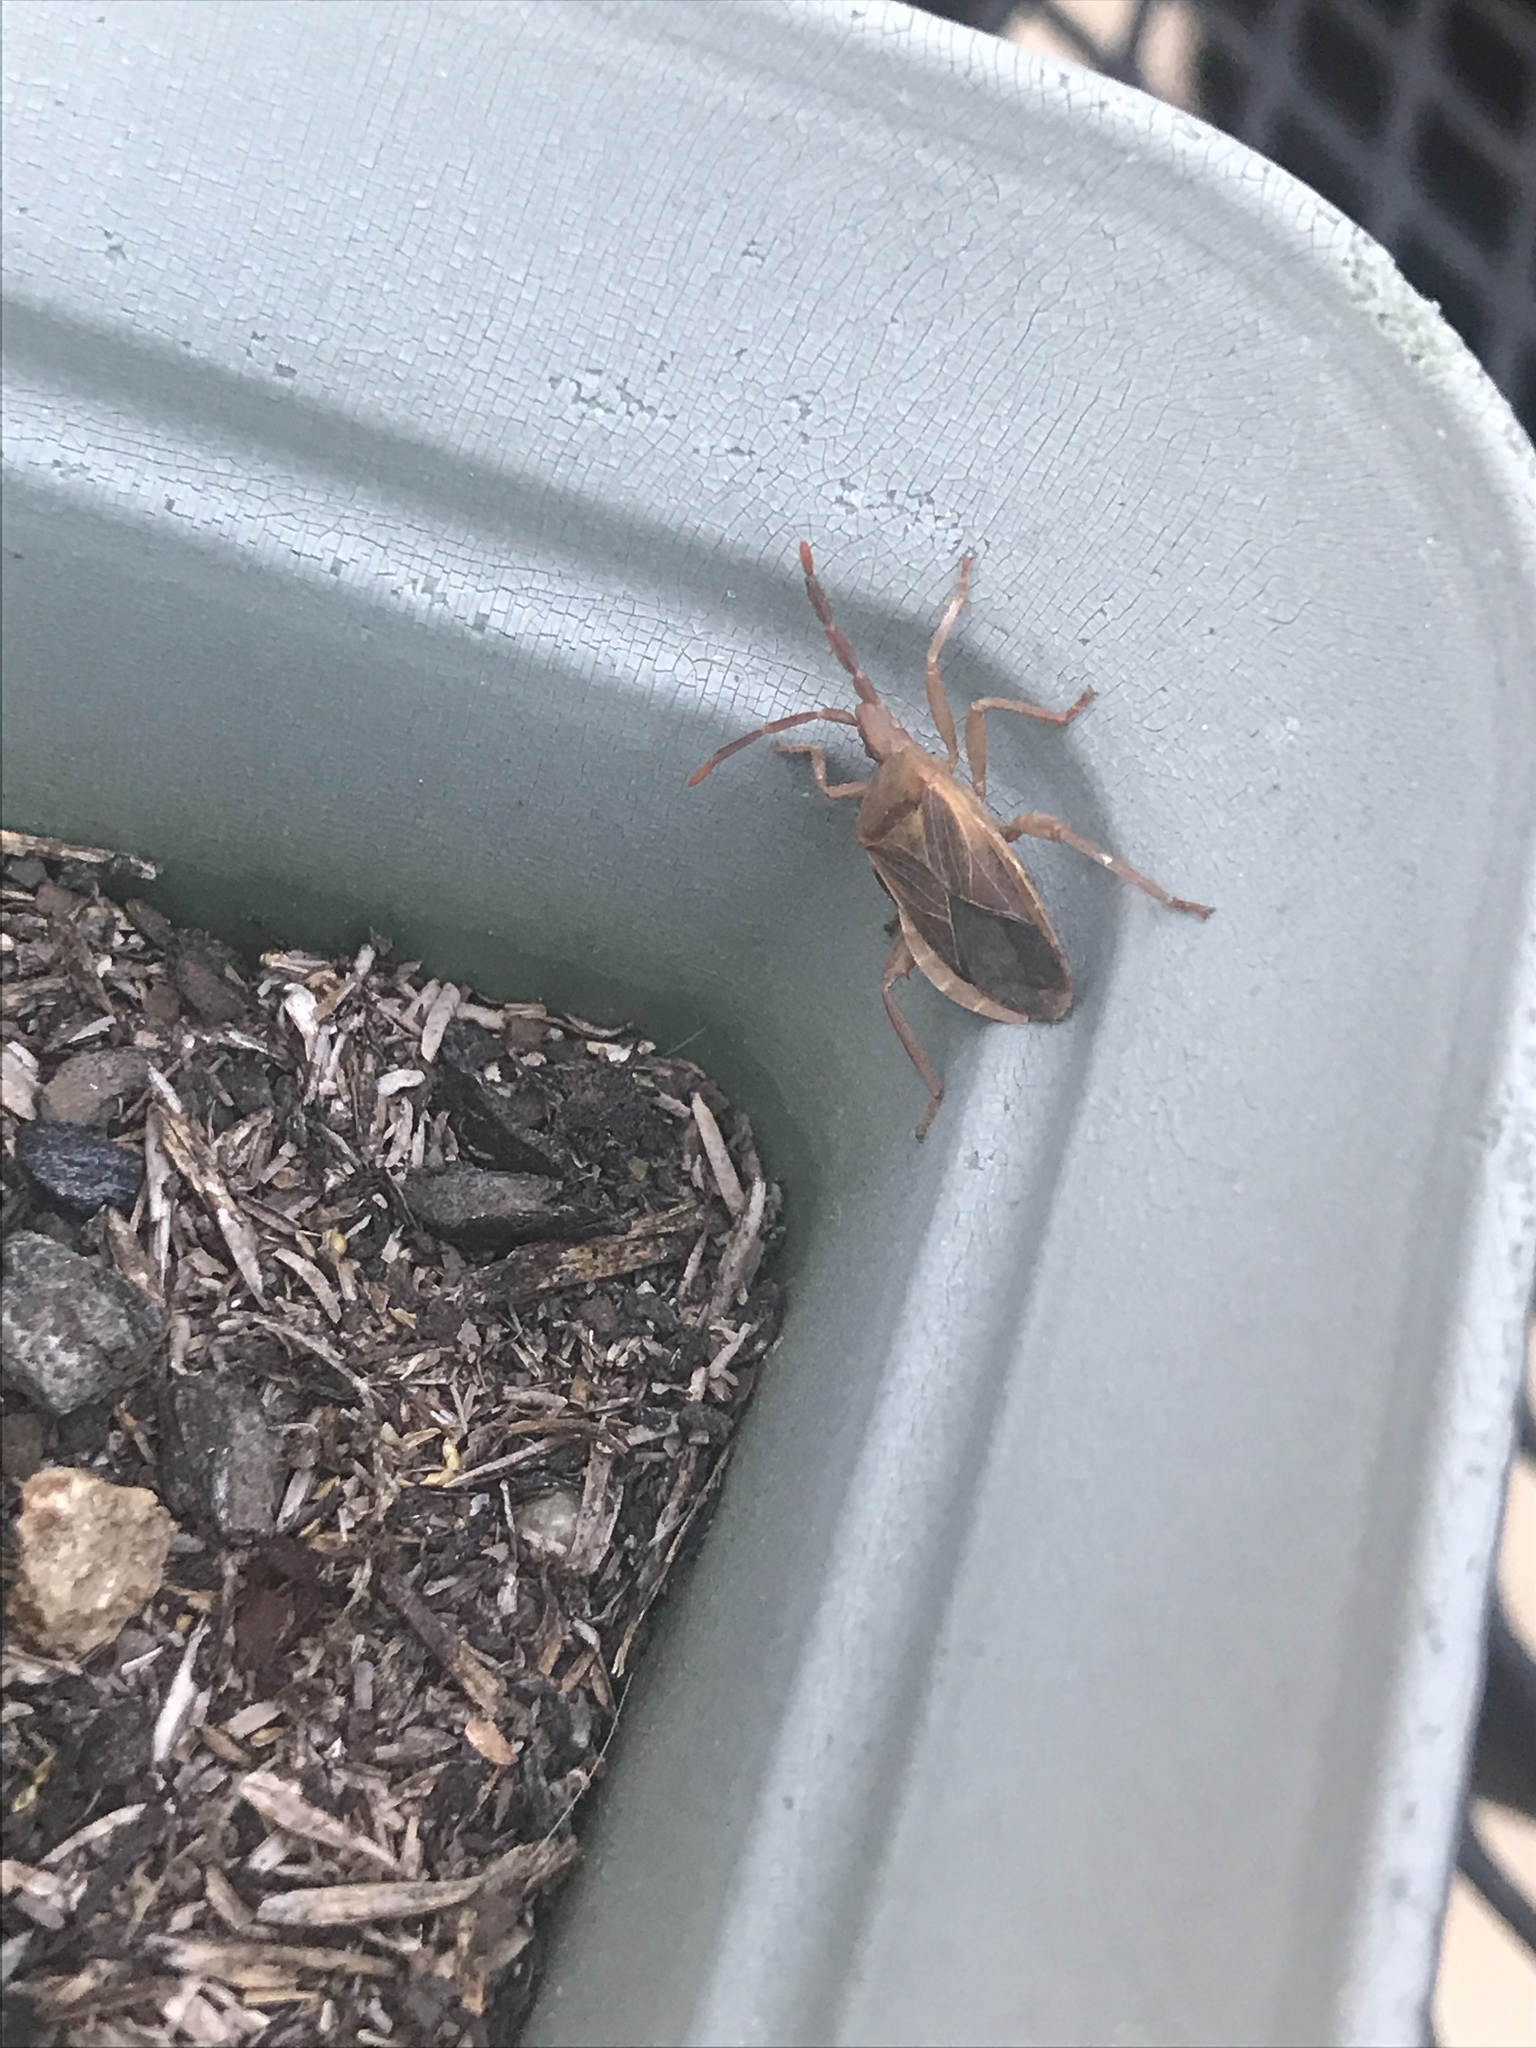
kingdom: Animalia
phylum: Arthropoda
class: Insecta
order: Hemiptera
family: Coreidae
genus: Chelinidea
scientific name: Chelinidea vittiger
